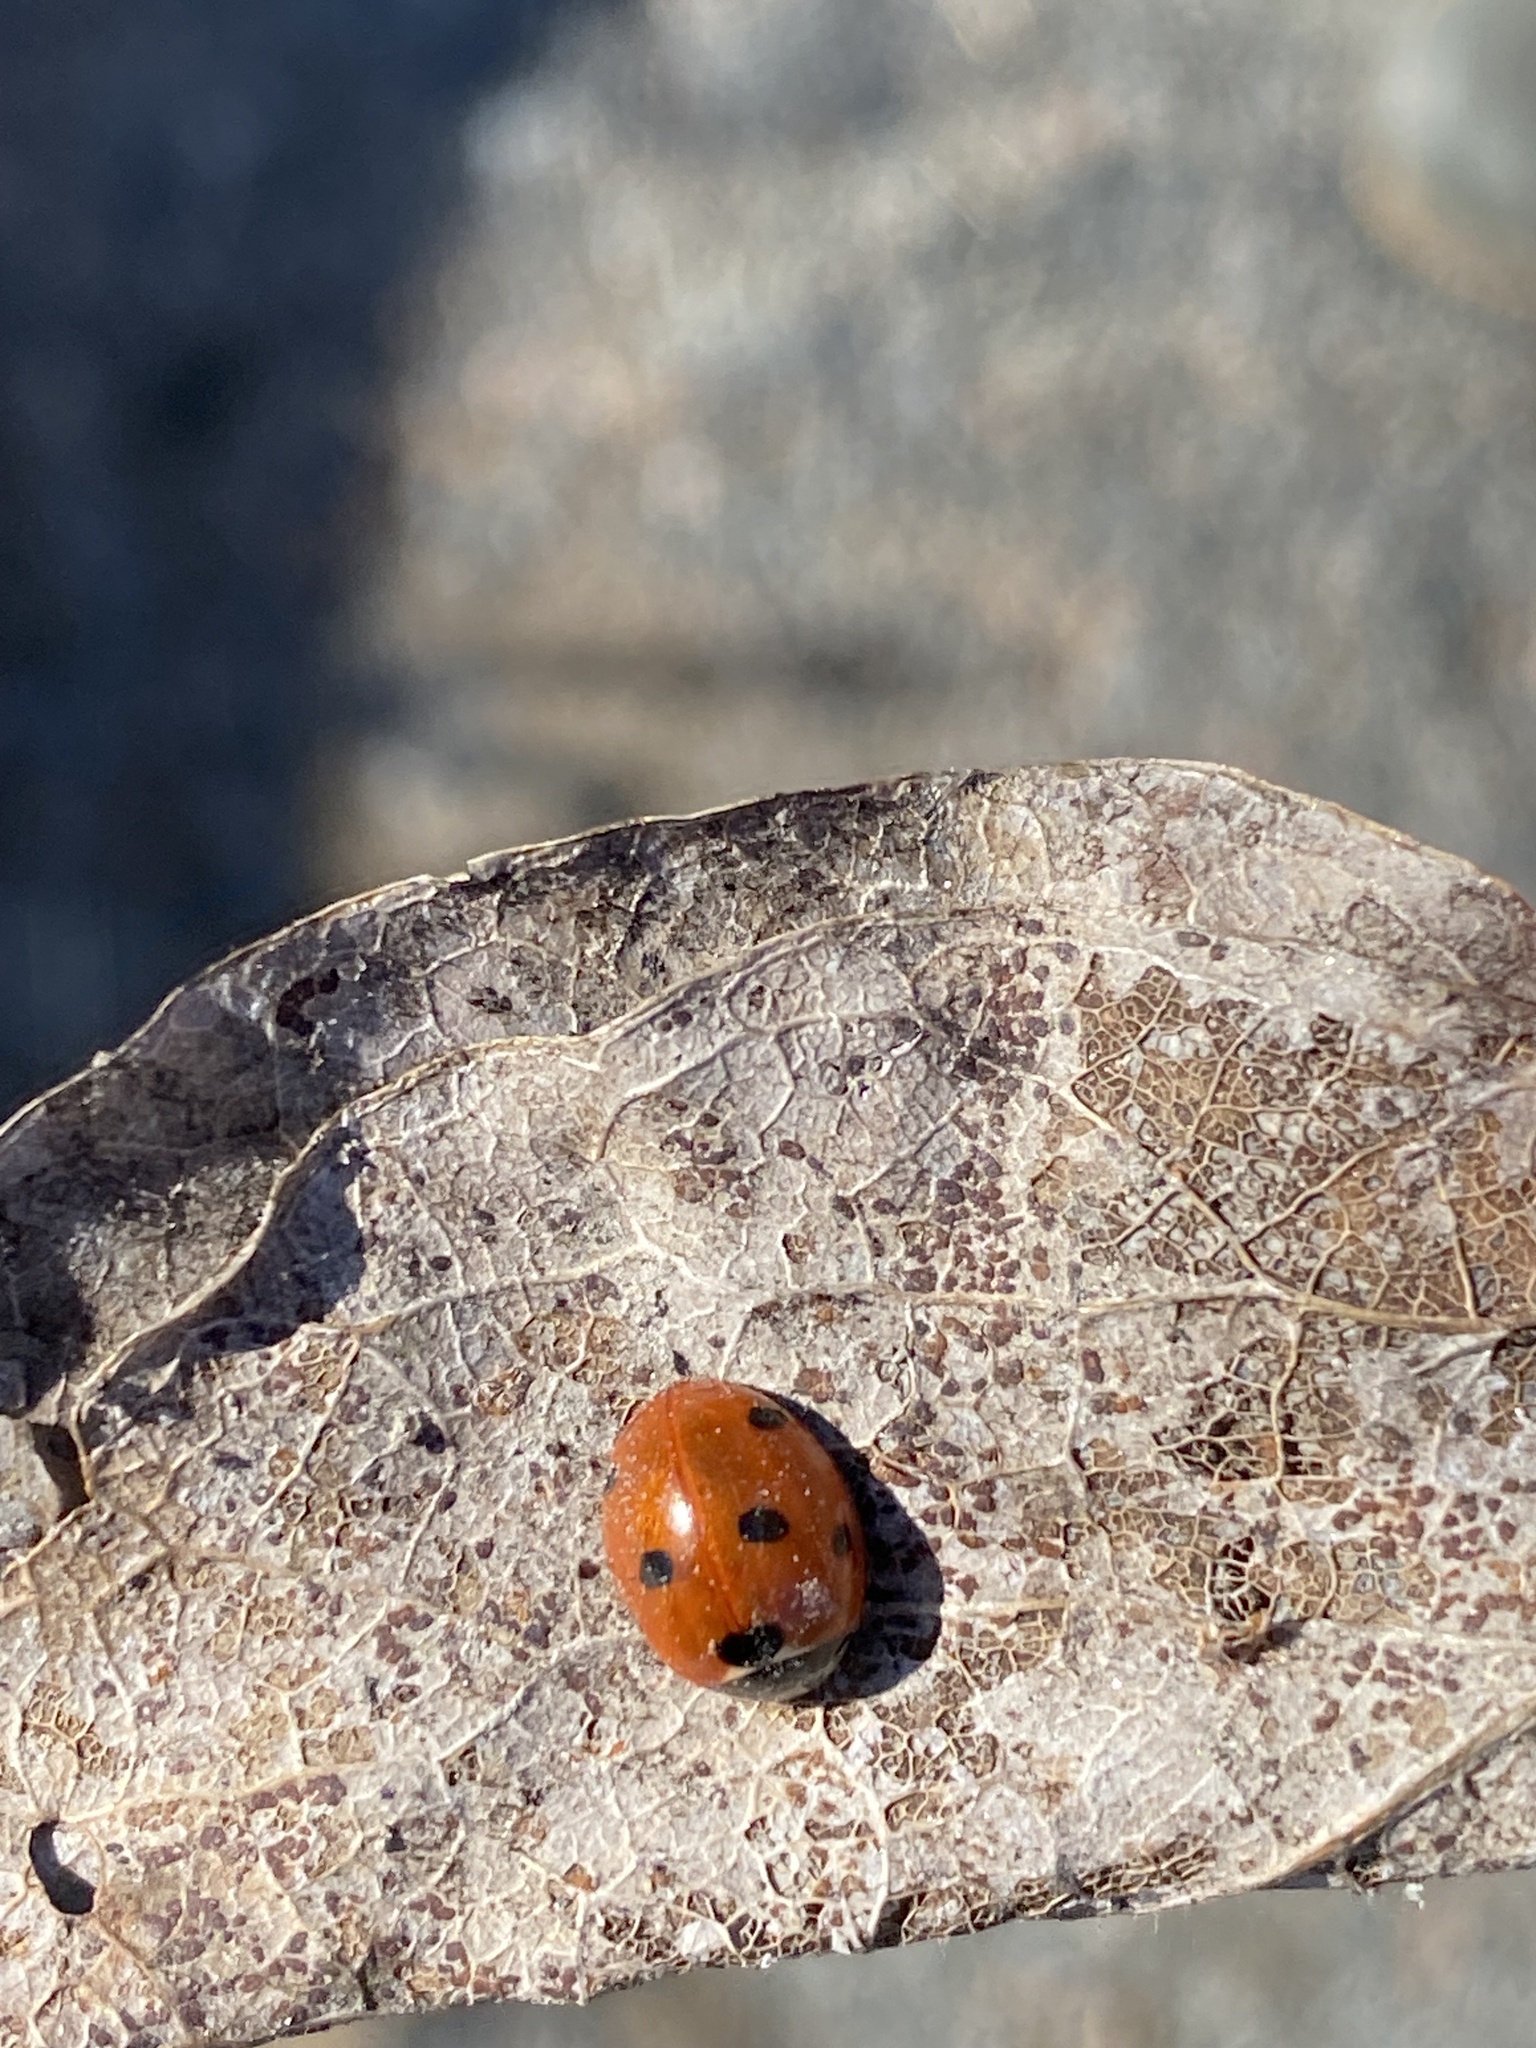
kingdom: Animalia
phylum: Arthropoda
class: Insecta
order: Coleoptera
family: Coccinellidae
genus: Coccinella
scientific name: Coccinella septempunctata
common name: Sevenspotted lady beetle
